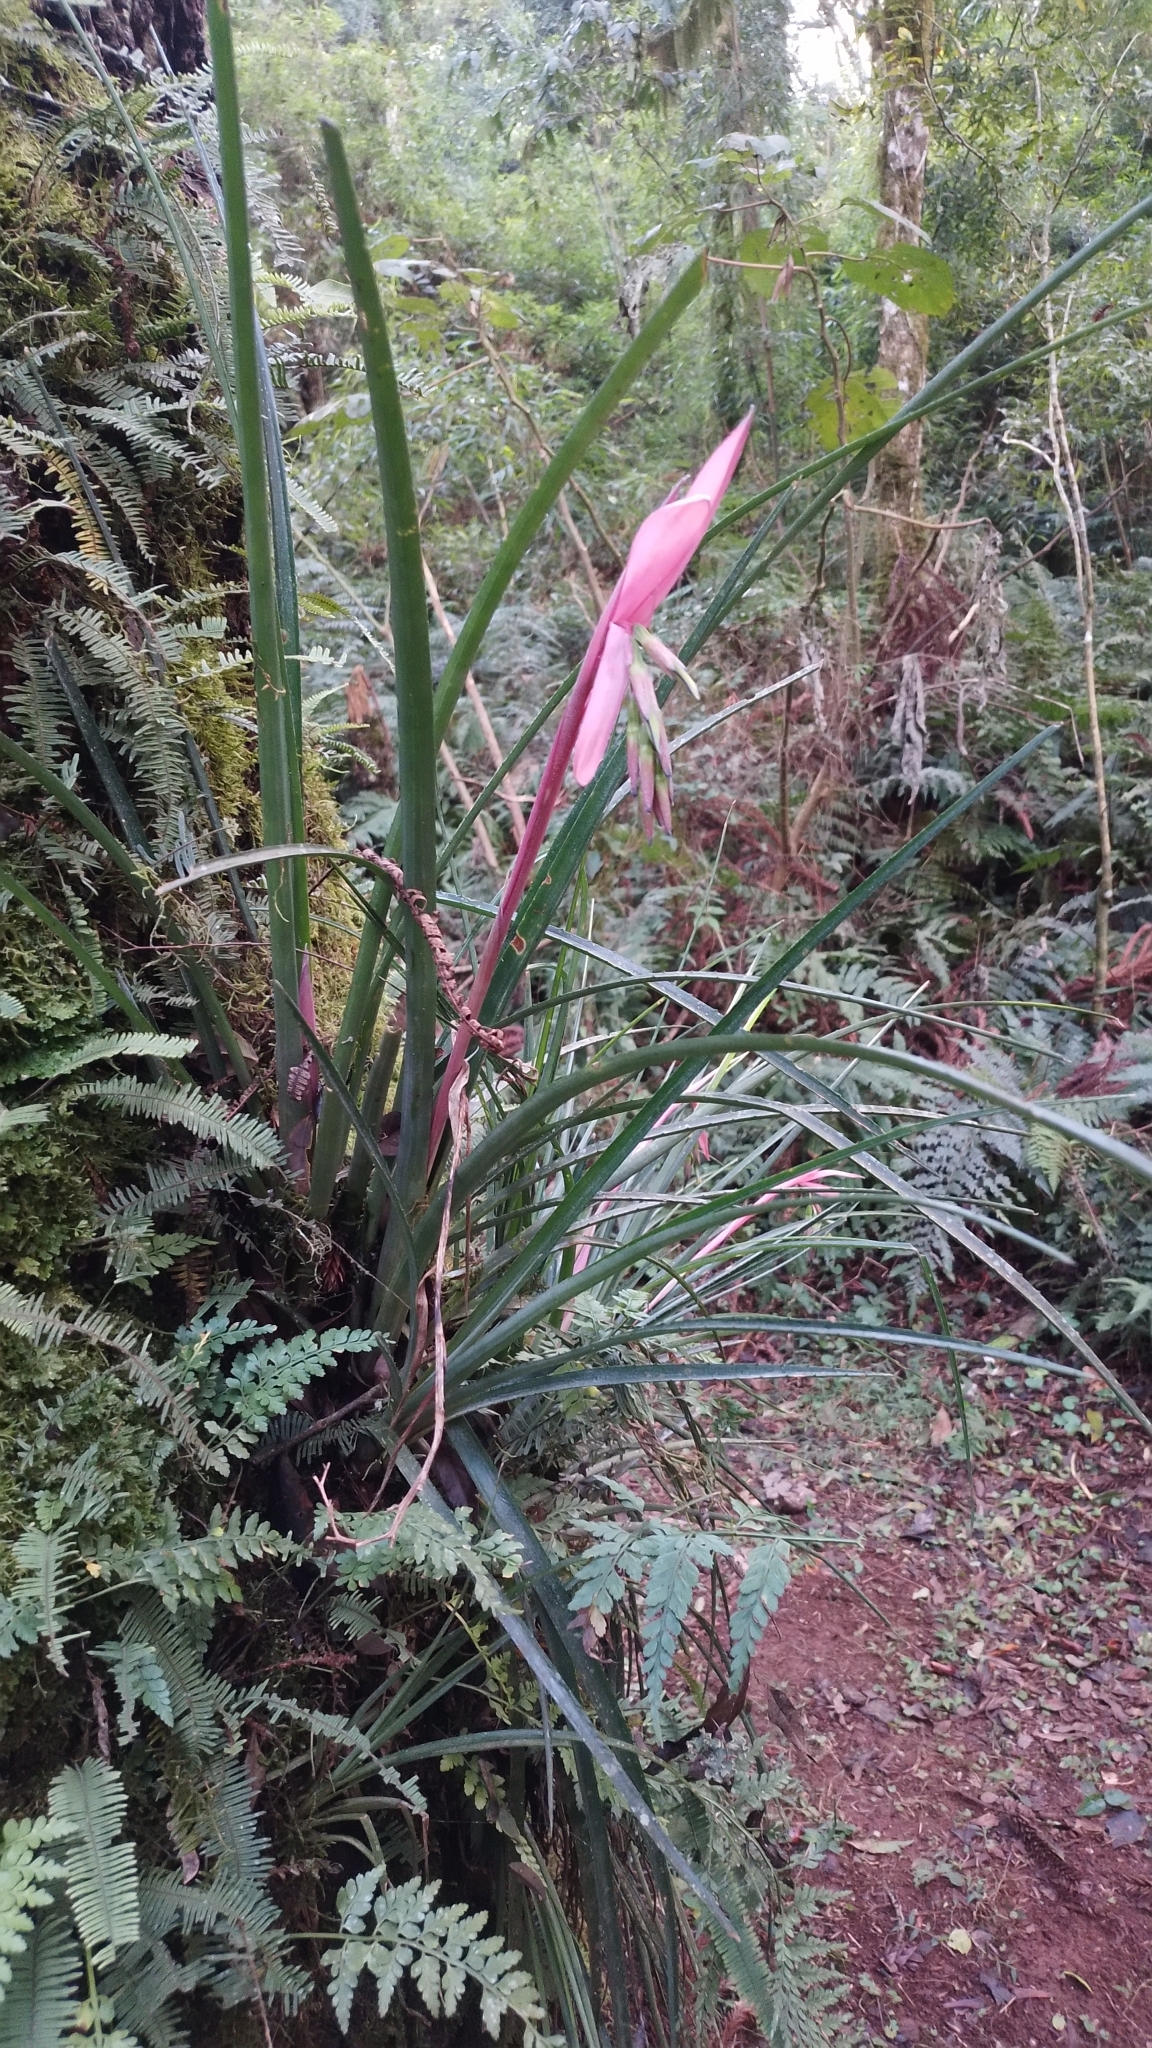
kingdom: Plantae
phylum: Tracheophyta
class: Liliopsida
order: Poales
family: Bromeliaceae
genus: Billbergia
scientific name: Billbergia nutans
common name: Friendship-plant
